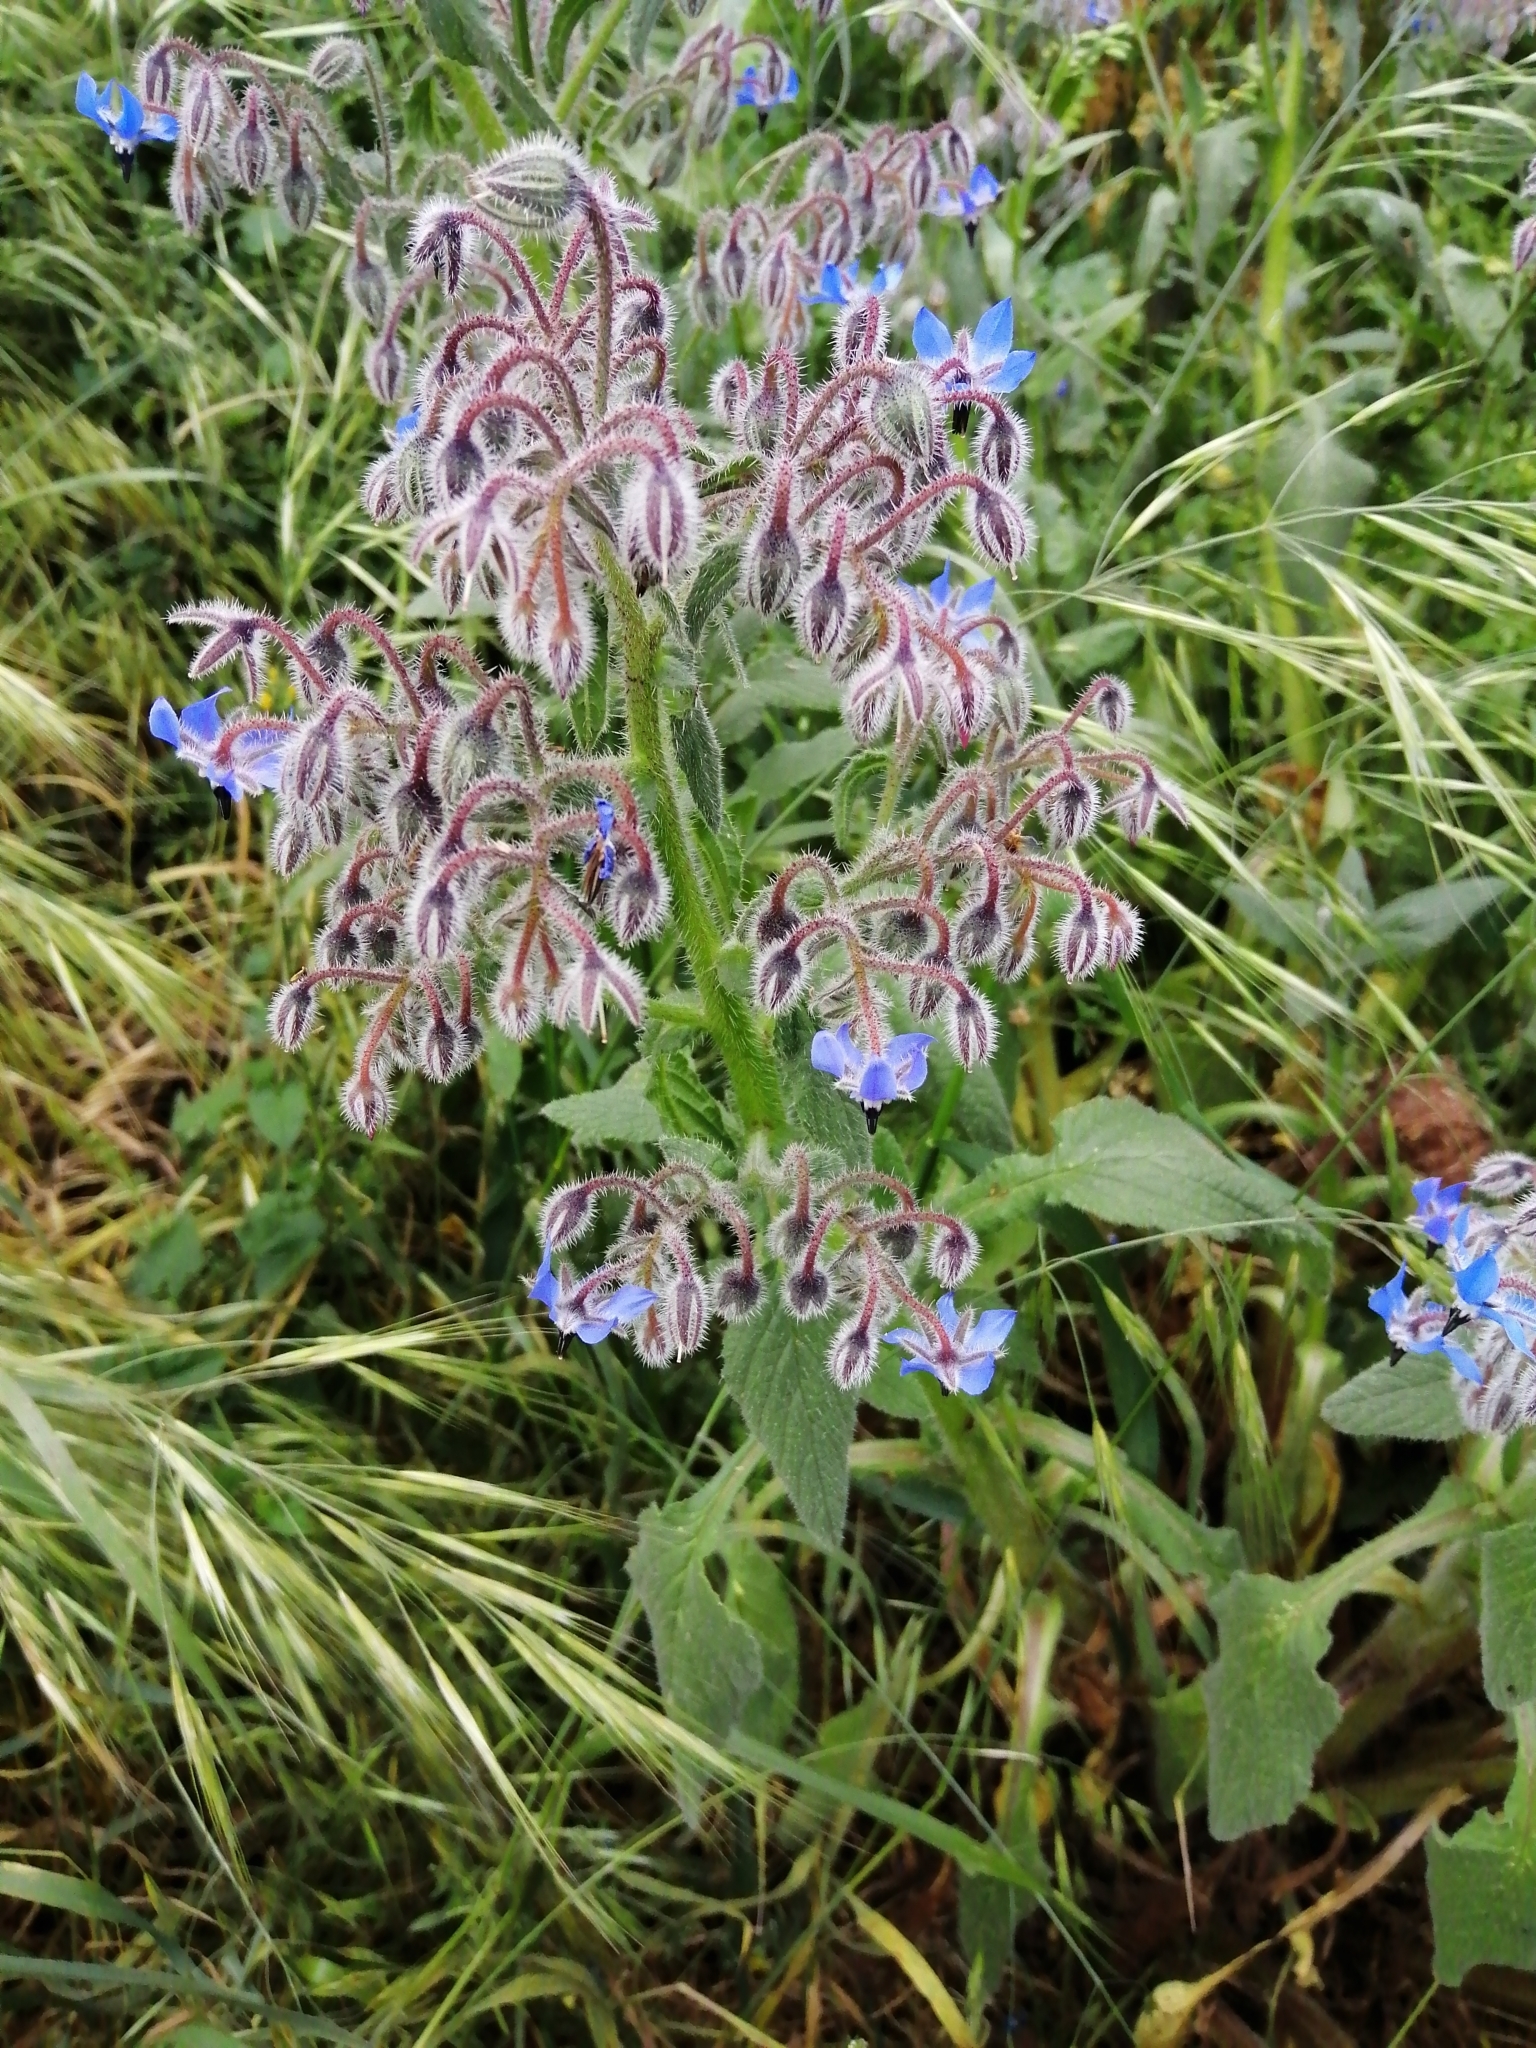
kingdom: Plantae
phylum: Tracheophyta
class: Magnoliopsida
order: Boraginales
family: Boraginaceae
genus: Borago
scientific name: Borago officinalis
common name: Borage
